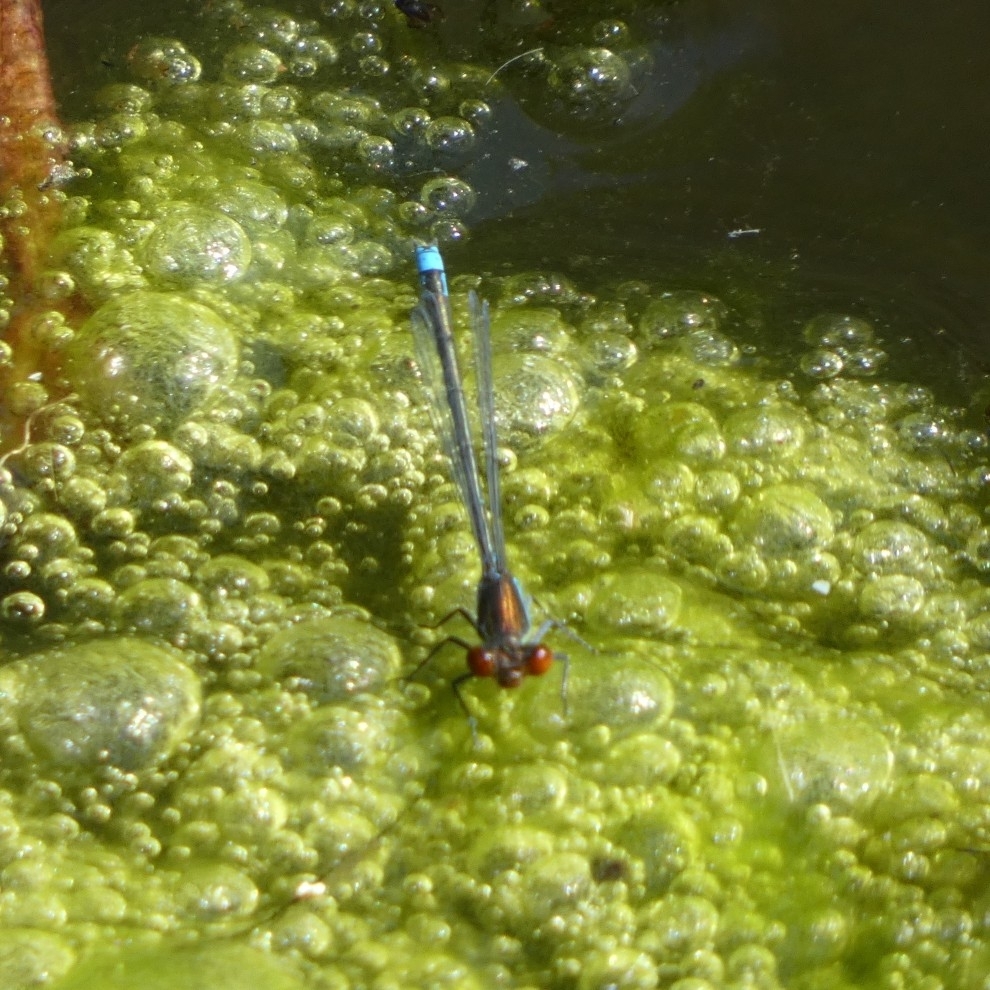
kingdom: Animalia
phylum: Arthropoda
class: Insecta
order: Odonata
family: Coenagrionidae
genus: Erythromma
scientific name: Erythromma viridulum
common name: Small red-eyed damselfly
